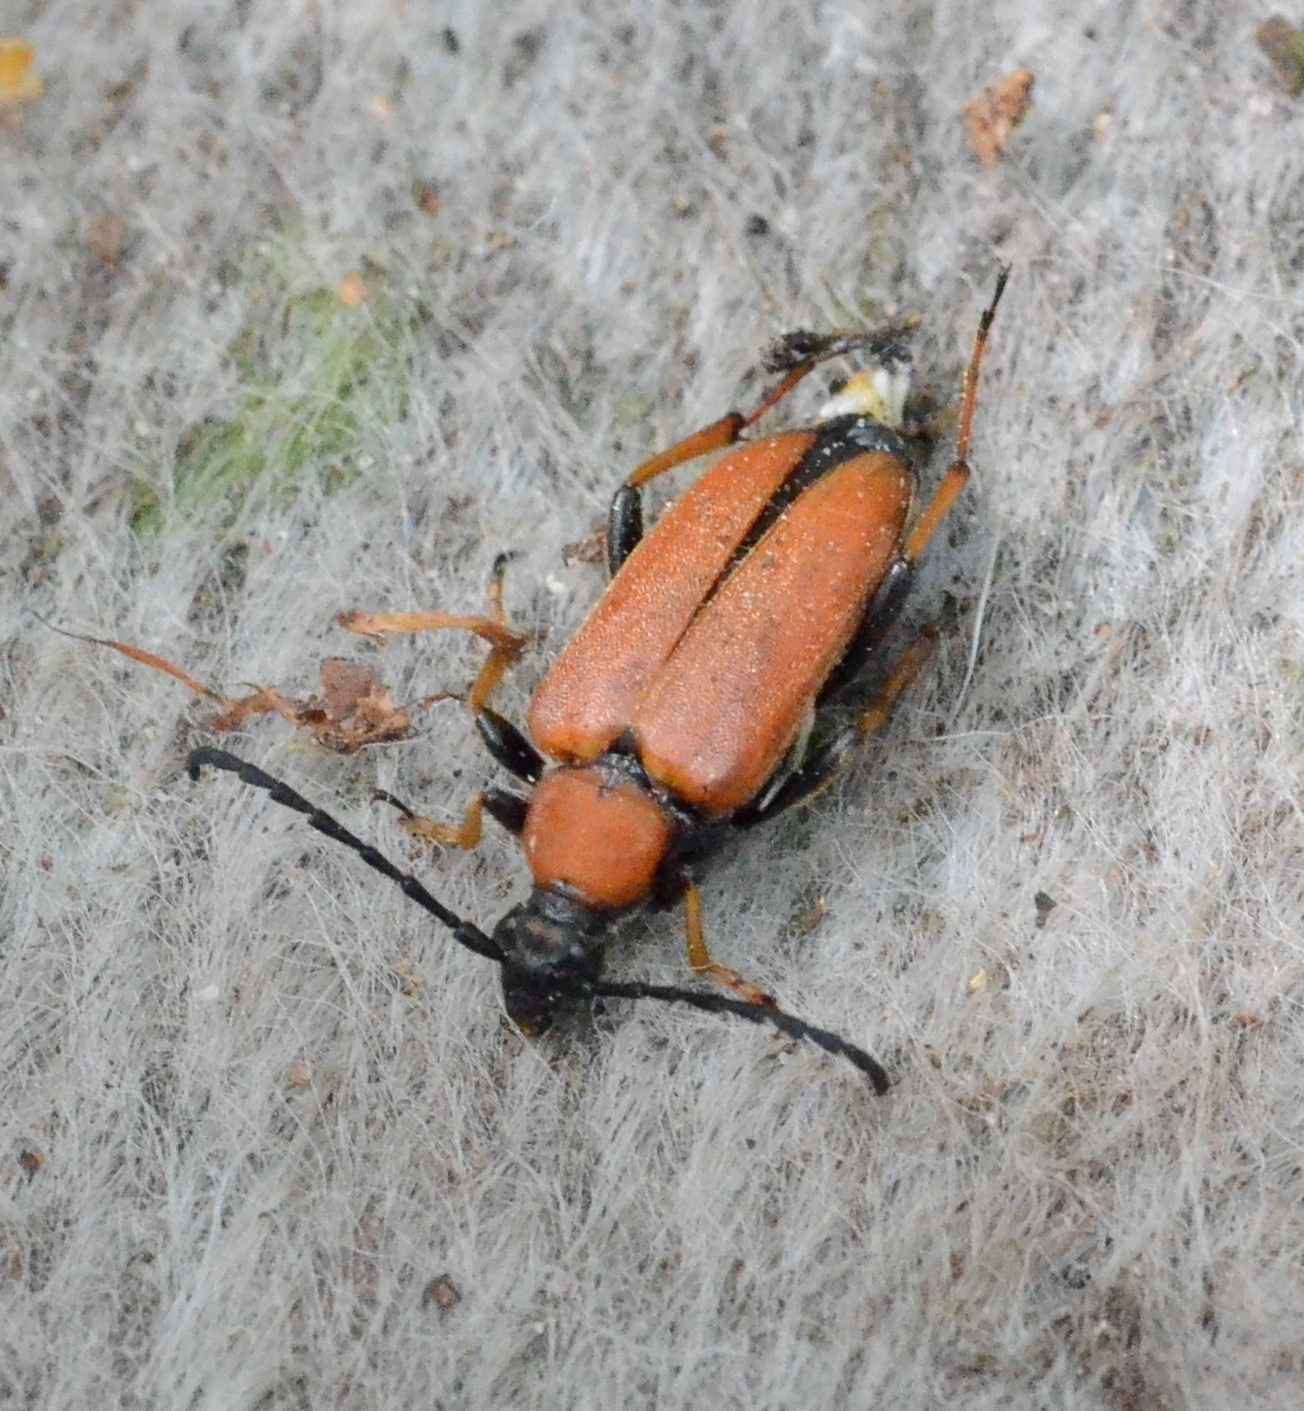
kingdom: Animalia
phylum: Arthropoda
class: Insecta
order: Coleoptera
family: Cerambycidae
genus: Stictoleptura
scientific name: Stictoleptura rubra
